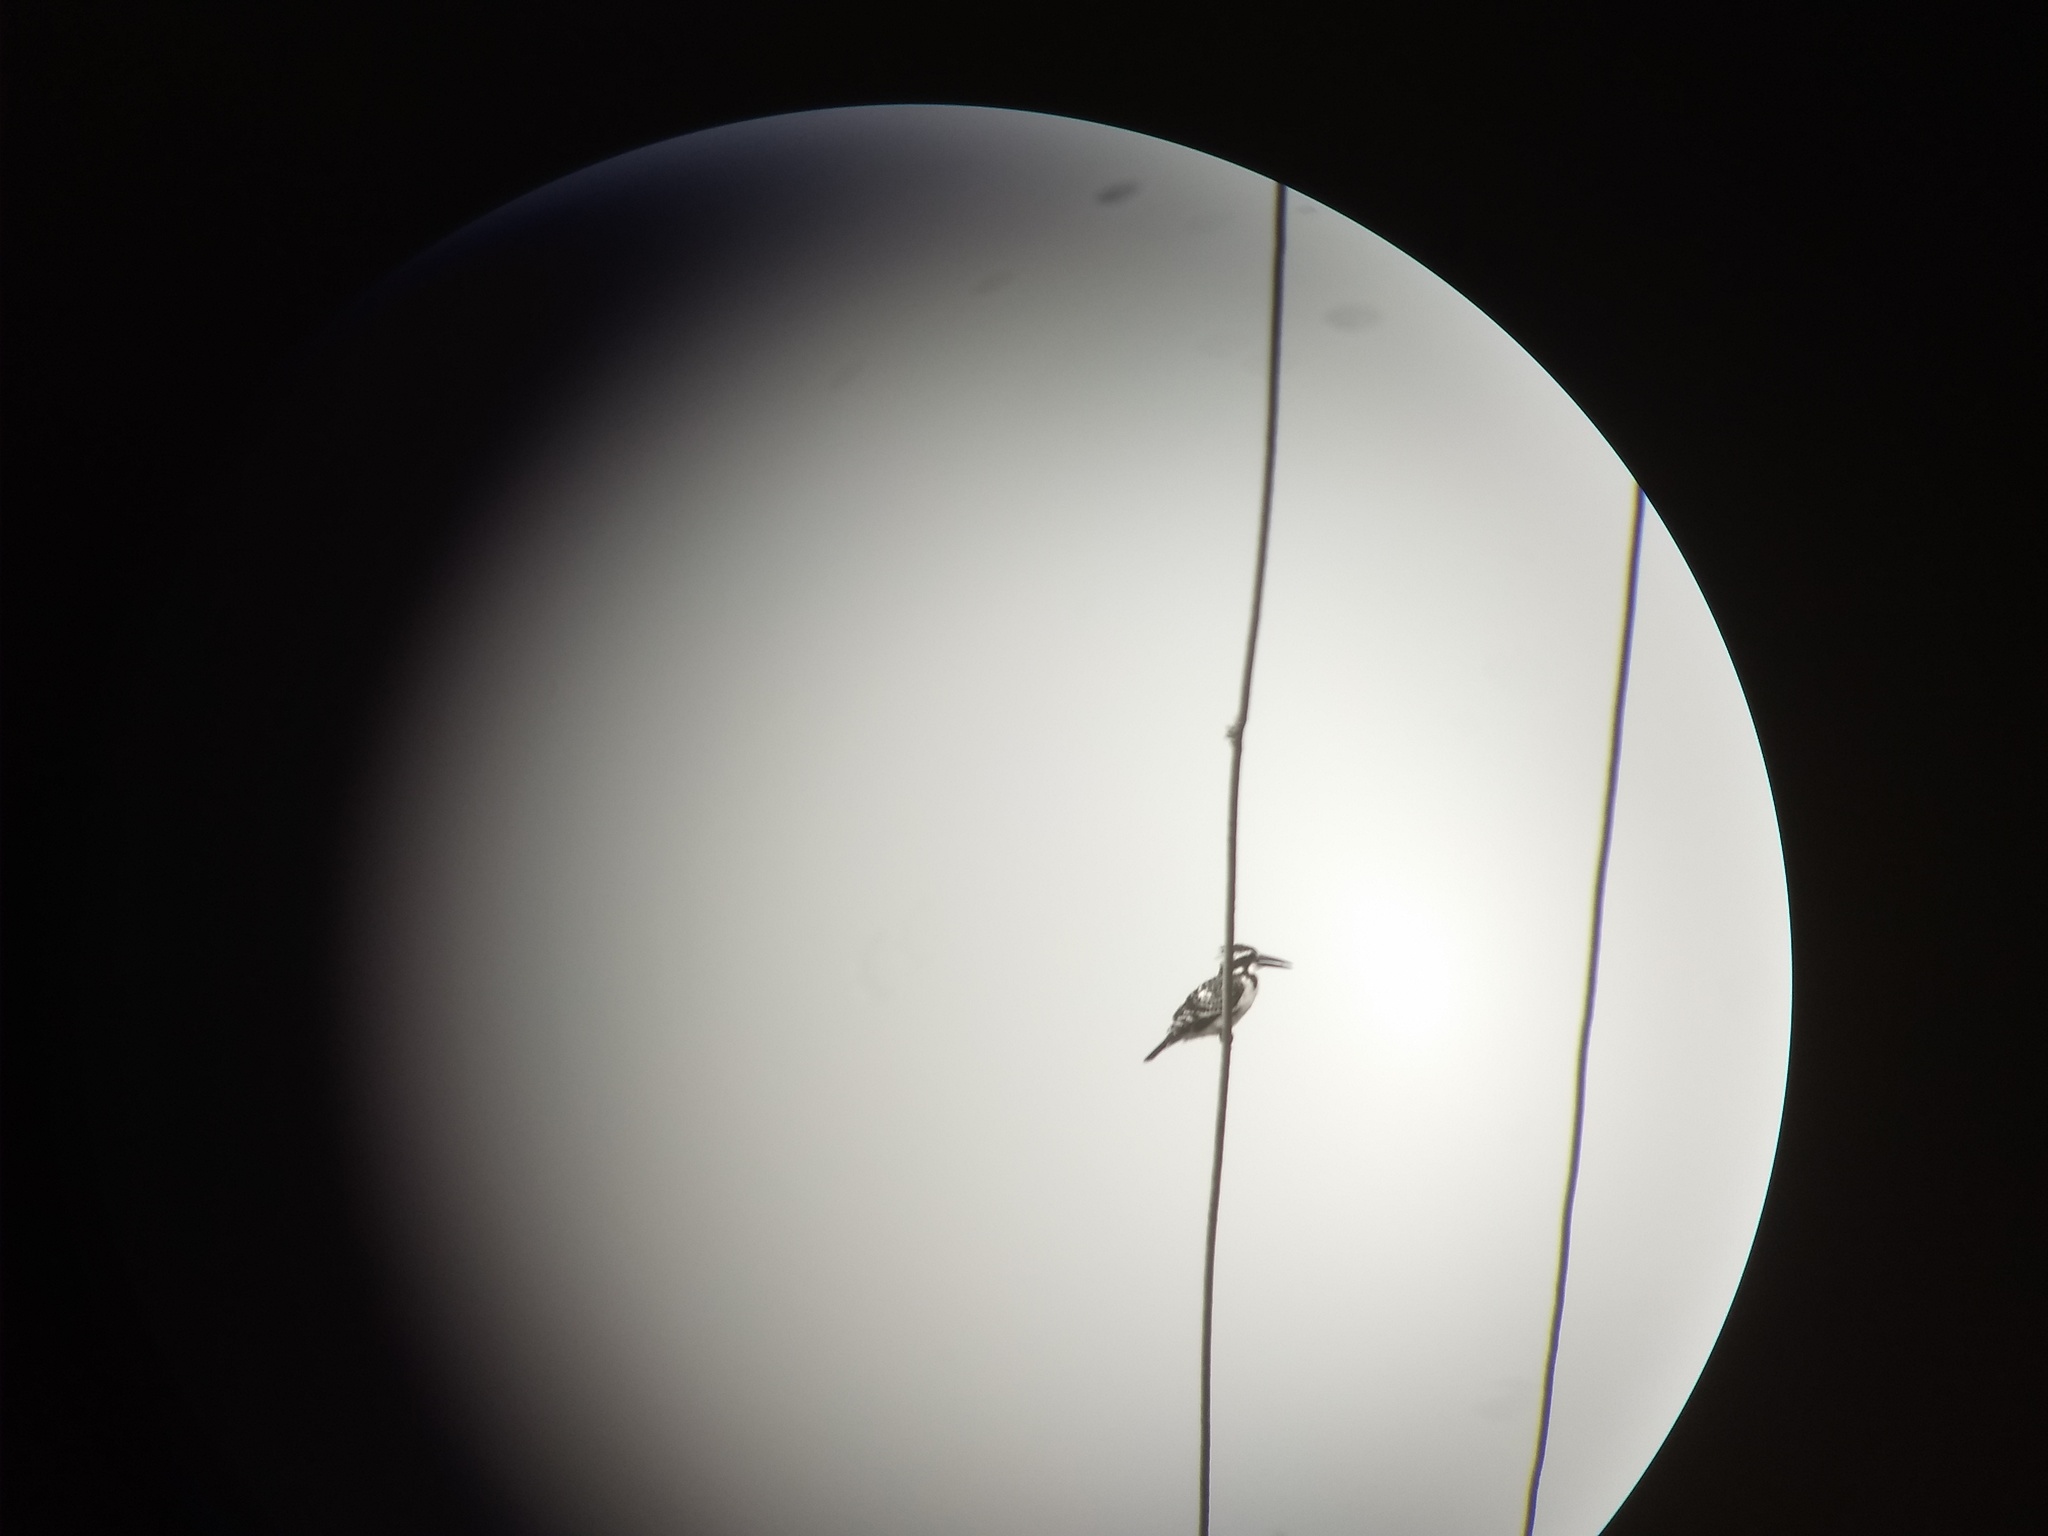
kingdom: Animalia
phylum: Chordata
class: Aves
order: Coraciiformes
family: Alcedinidae
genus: Ceryle
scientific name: Ceryle rudis
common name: Pied kingfisher
